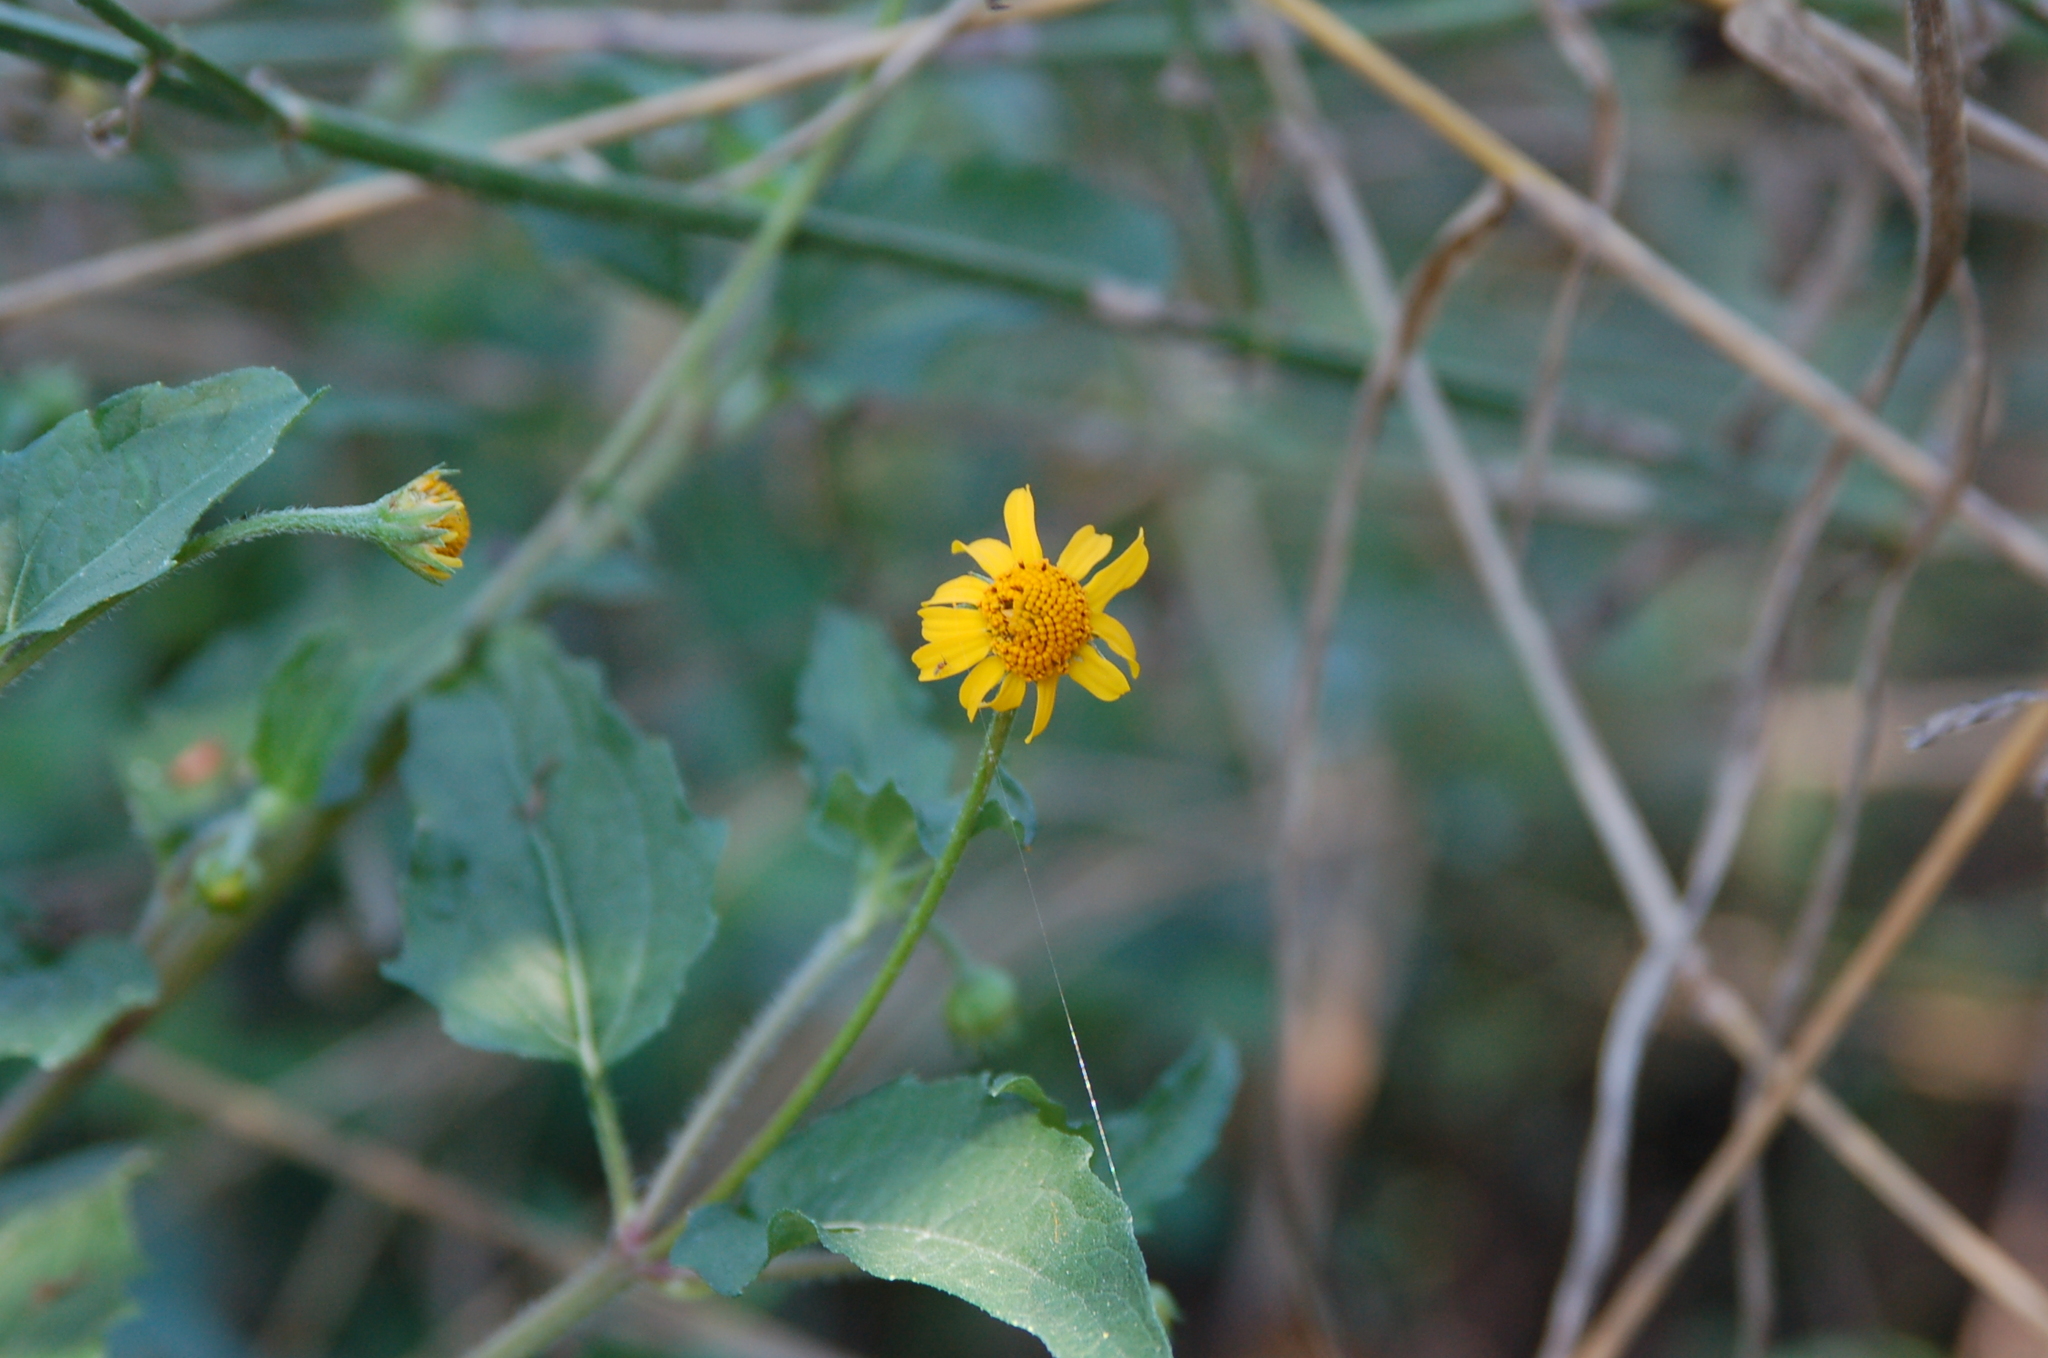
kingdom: Plantae
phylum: Tracheophyta
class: Magnoliopsida
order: Asterales
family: Asteraceae
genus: Acmella
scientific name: Acmella repens
